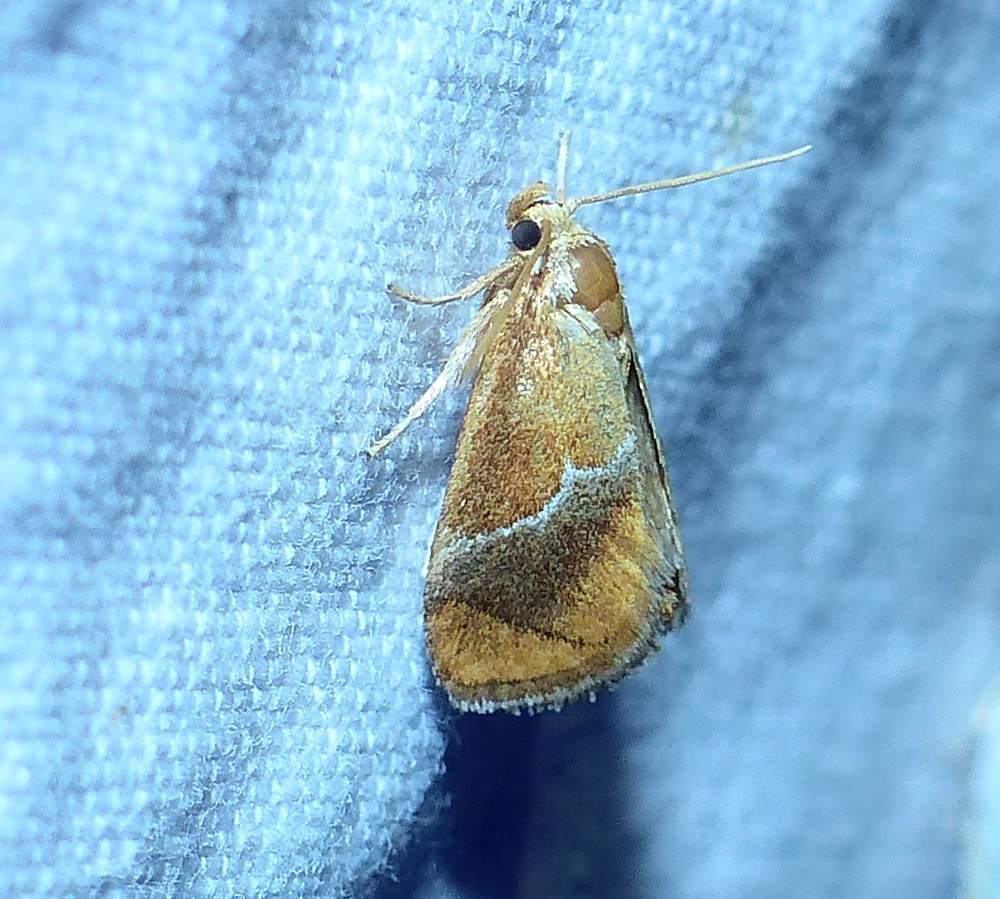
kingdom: Animalia
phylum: Arthropoda
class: Insecta
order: Lepidoptera
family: Limacodidae
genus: Lithacodes
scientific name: Lithacodes fasciola
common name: Yellow-shouldered slug moth
